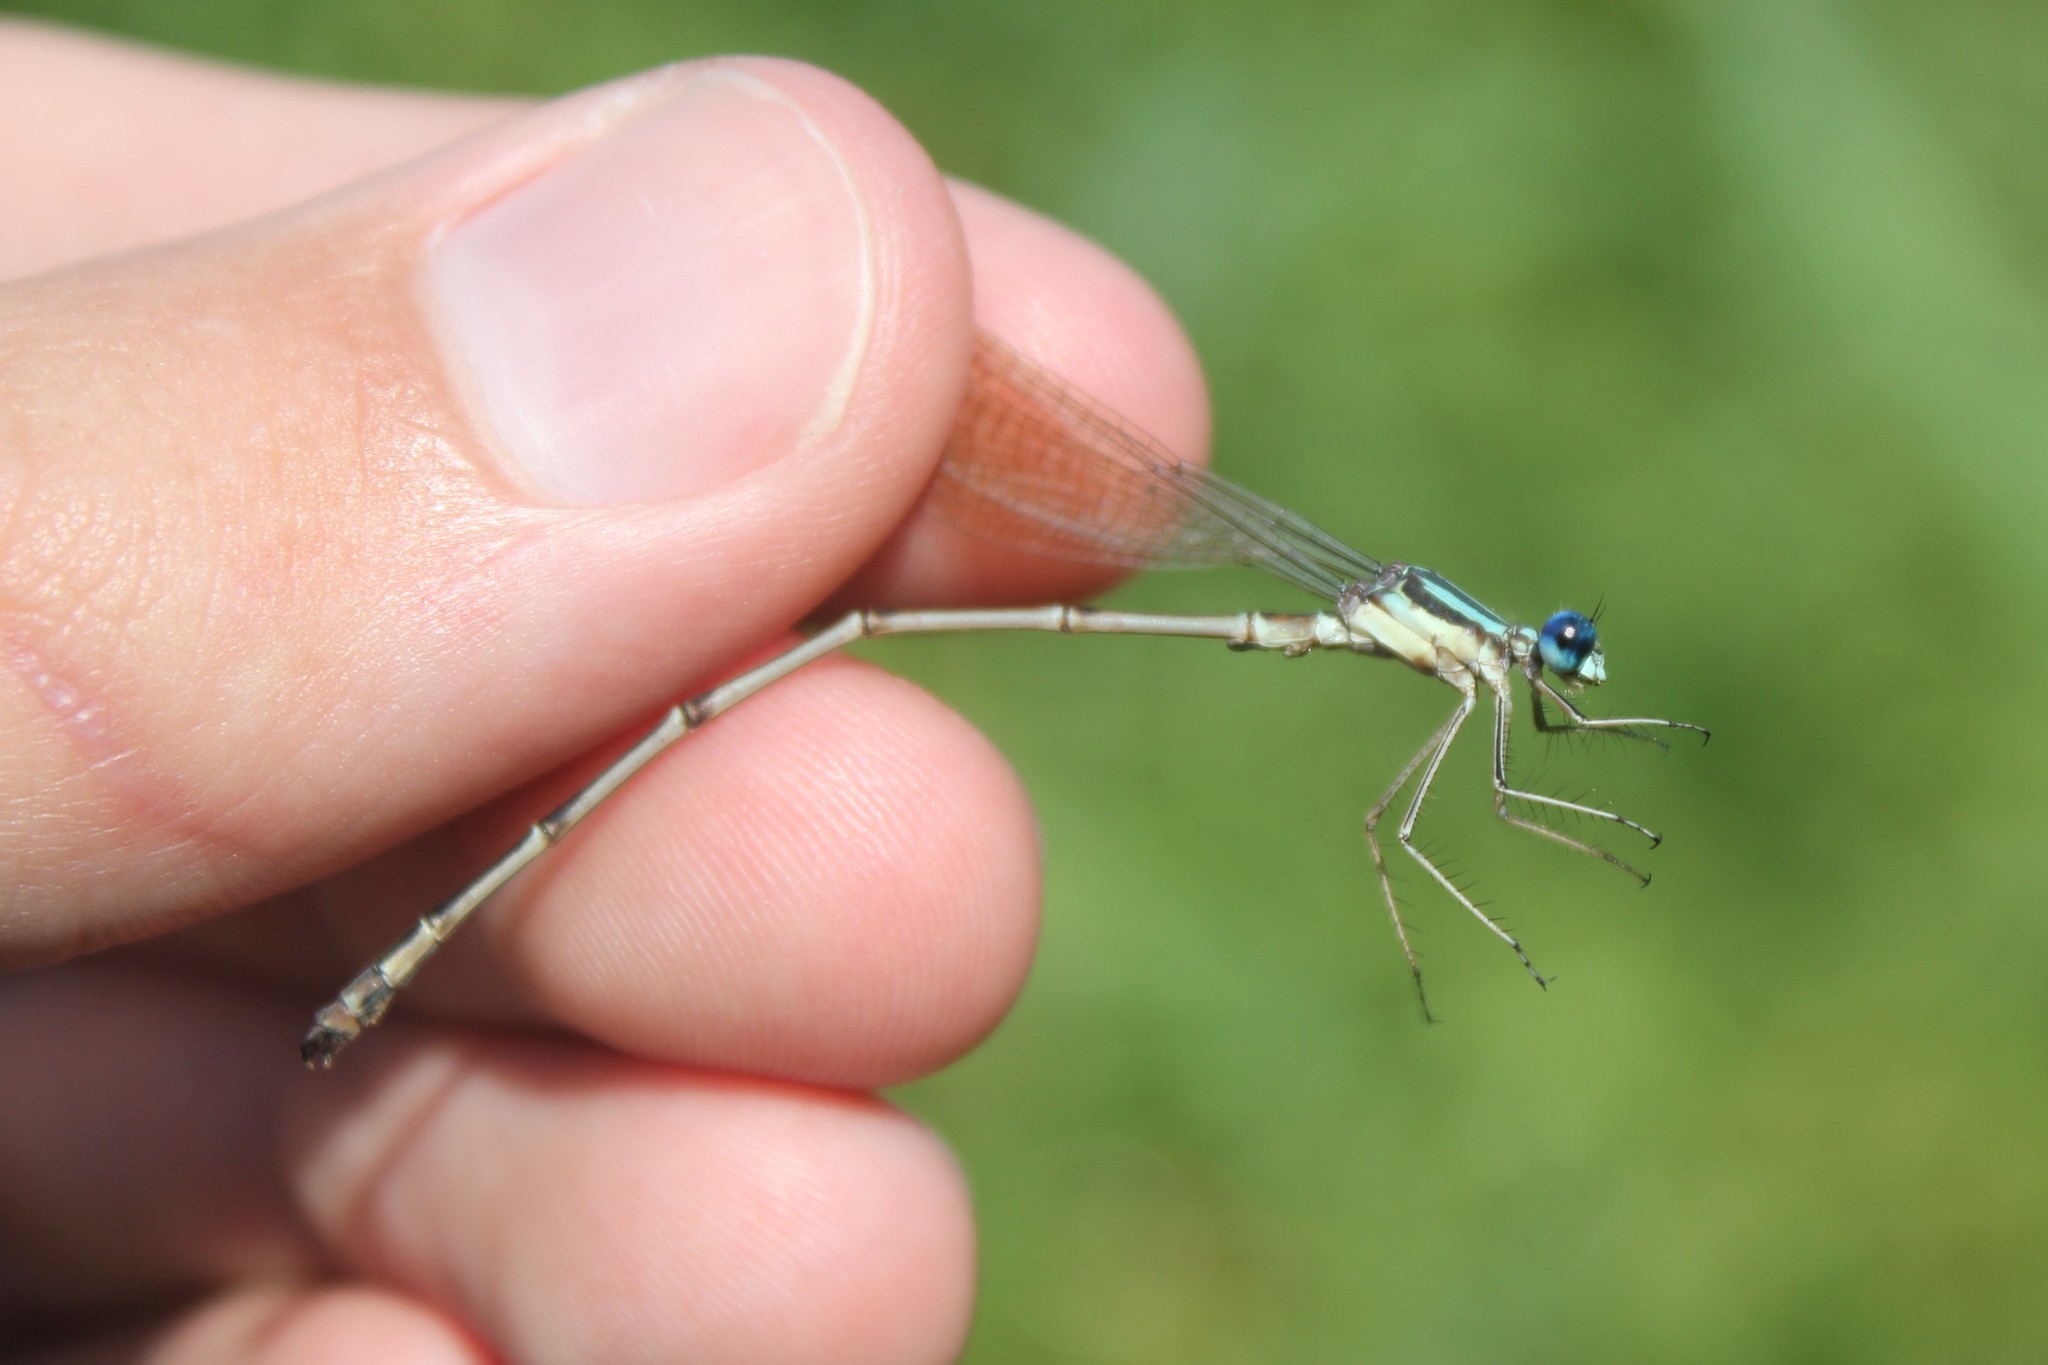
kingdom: Animalia
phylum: Arthropoda
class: Insecta
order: Odonata
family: Lestidae
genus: Lestes
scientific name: Lestes rectangularis
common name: Slender spreadwing
